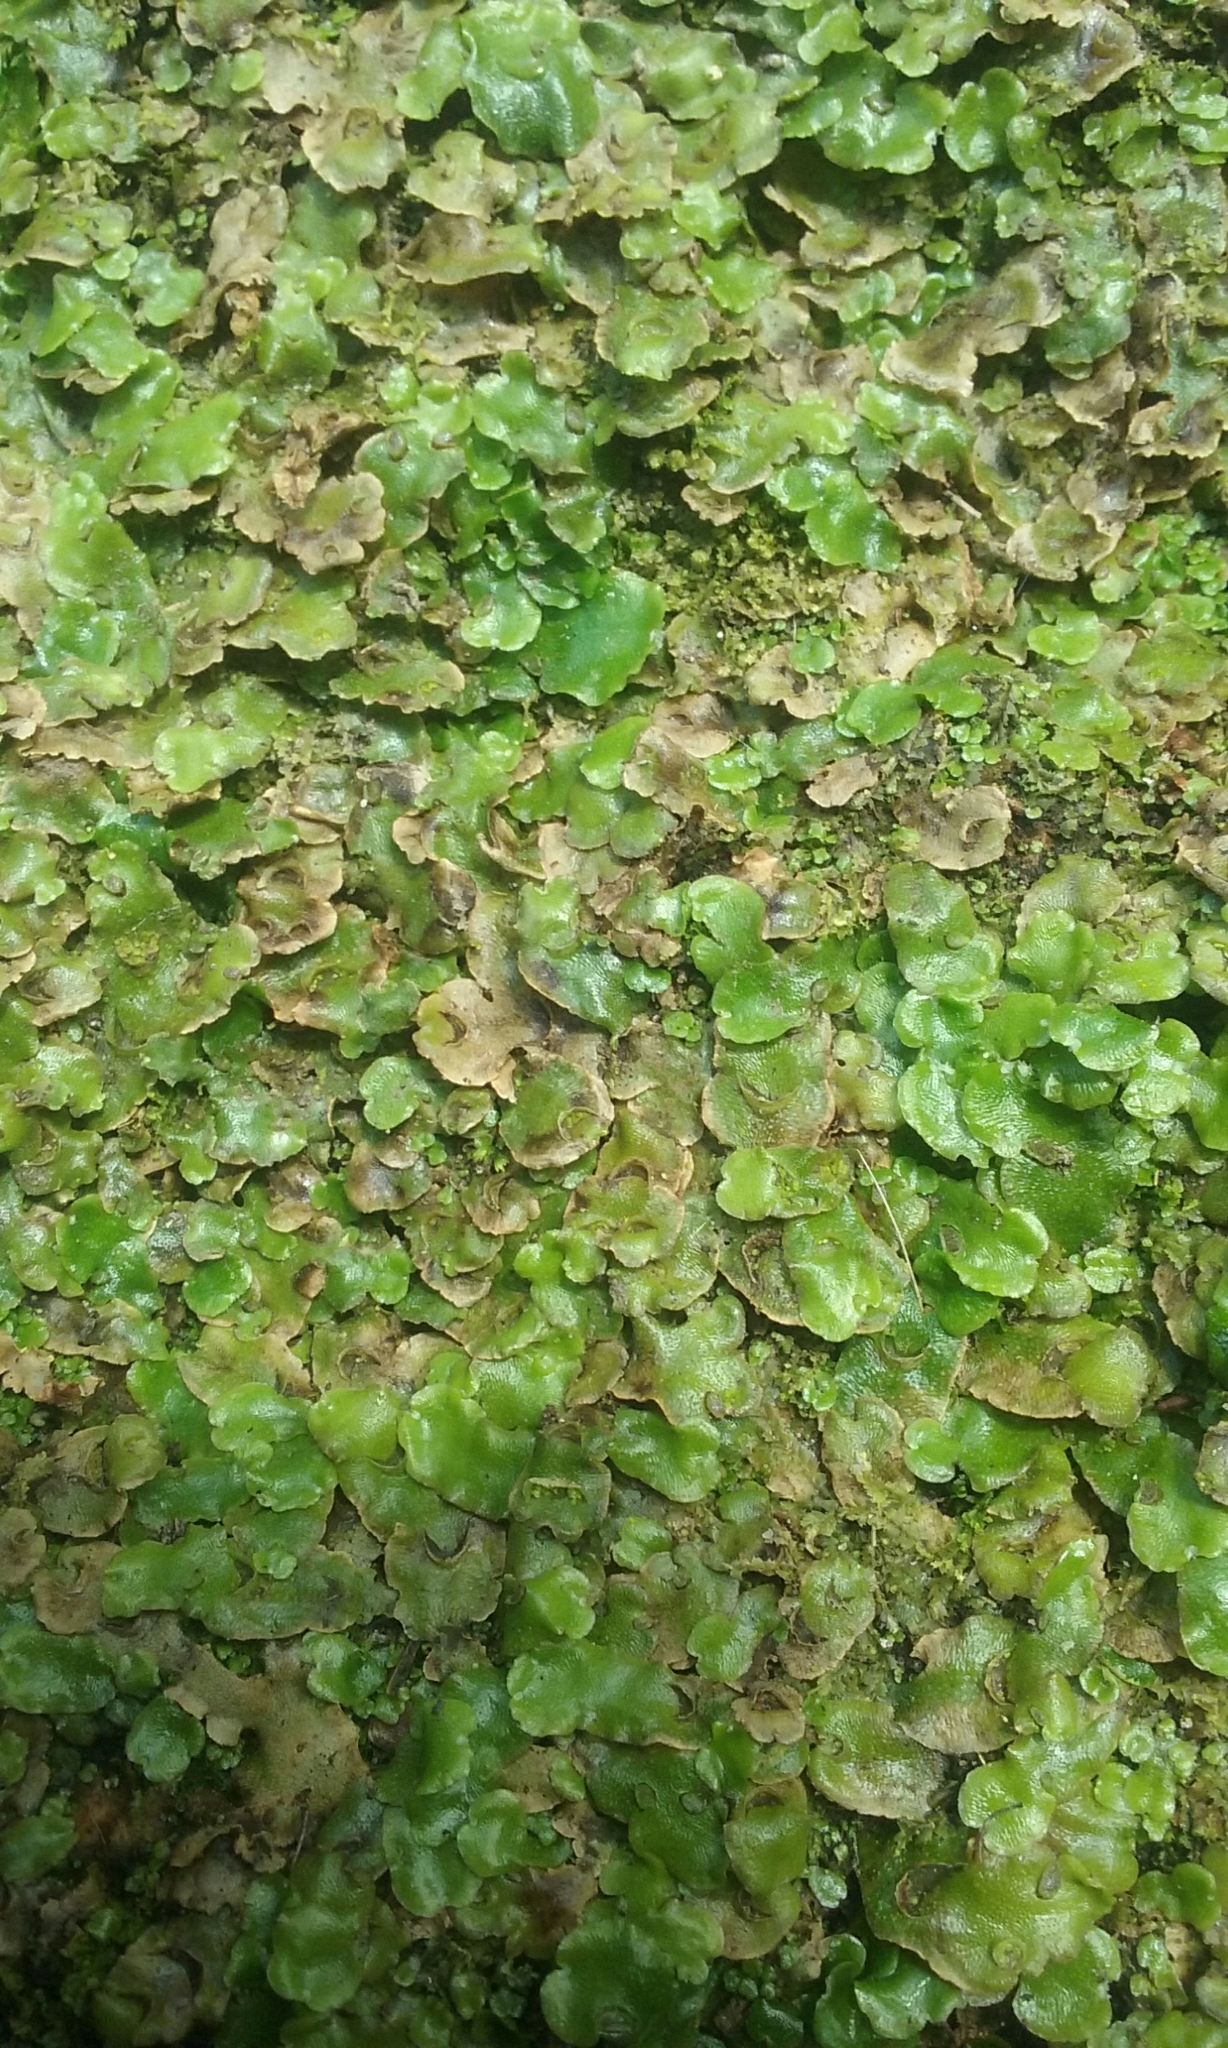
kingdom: Plantae
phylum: Marchantiophyta
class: Marchantiopsida
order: Lunulariales
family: Lunulariaceae
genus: Lunularia
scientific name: Lunularia cruciata
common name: Crescent-cup liverwort
